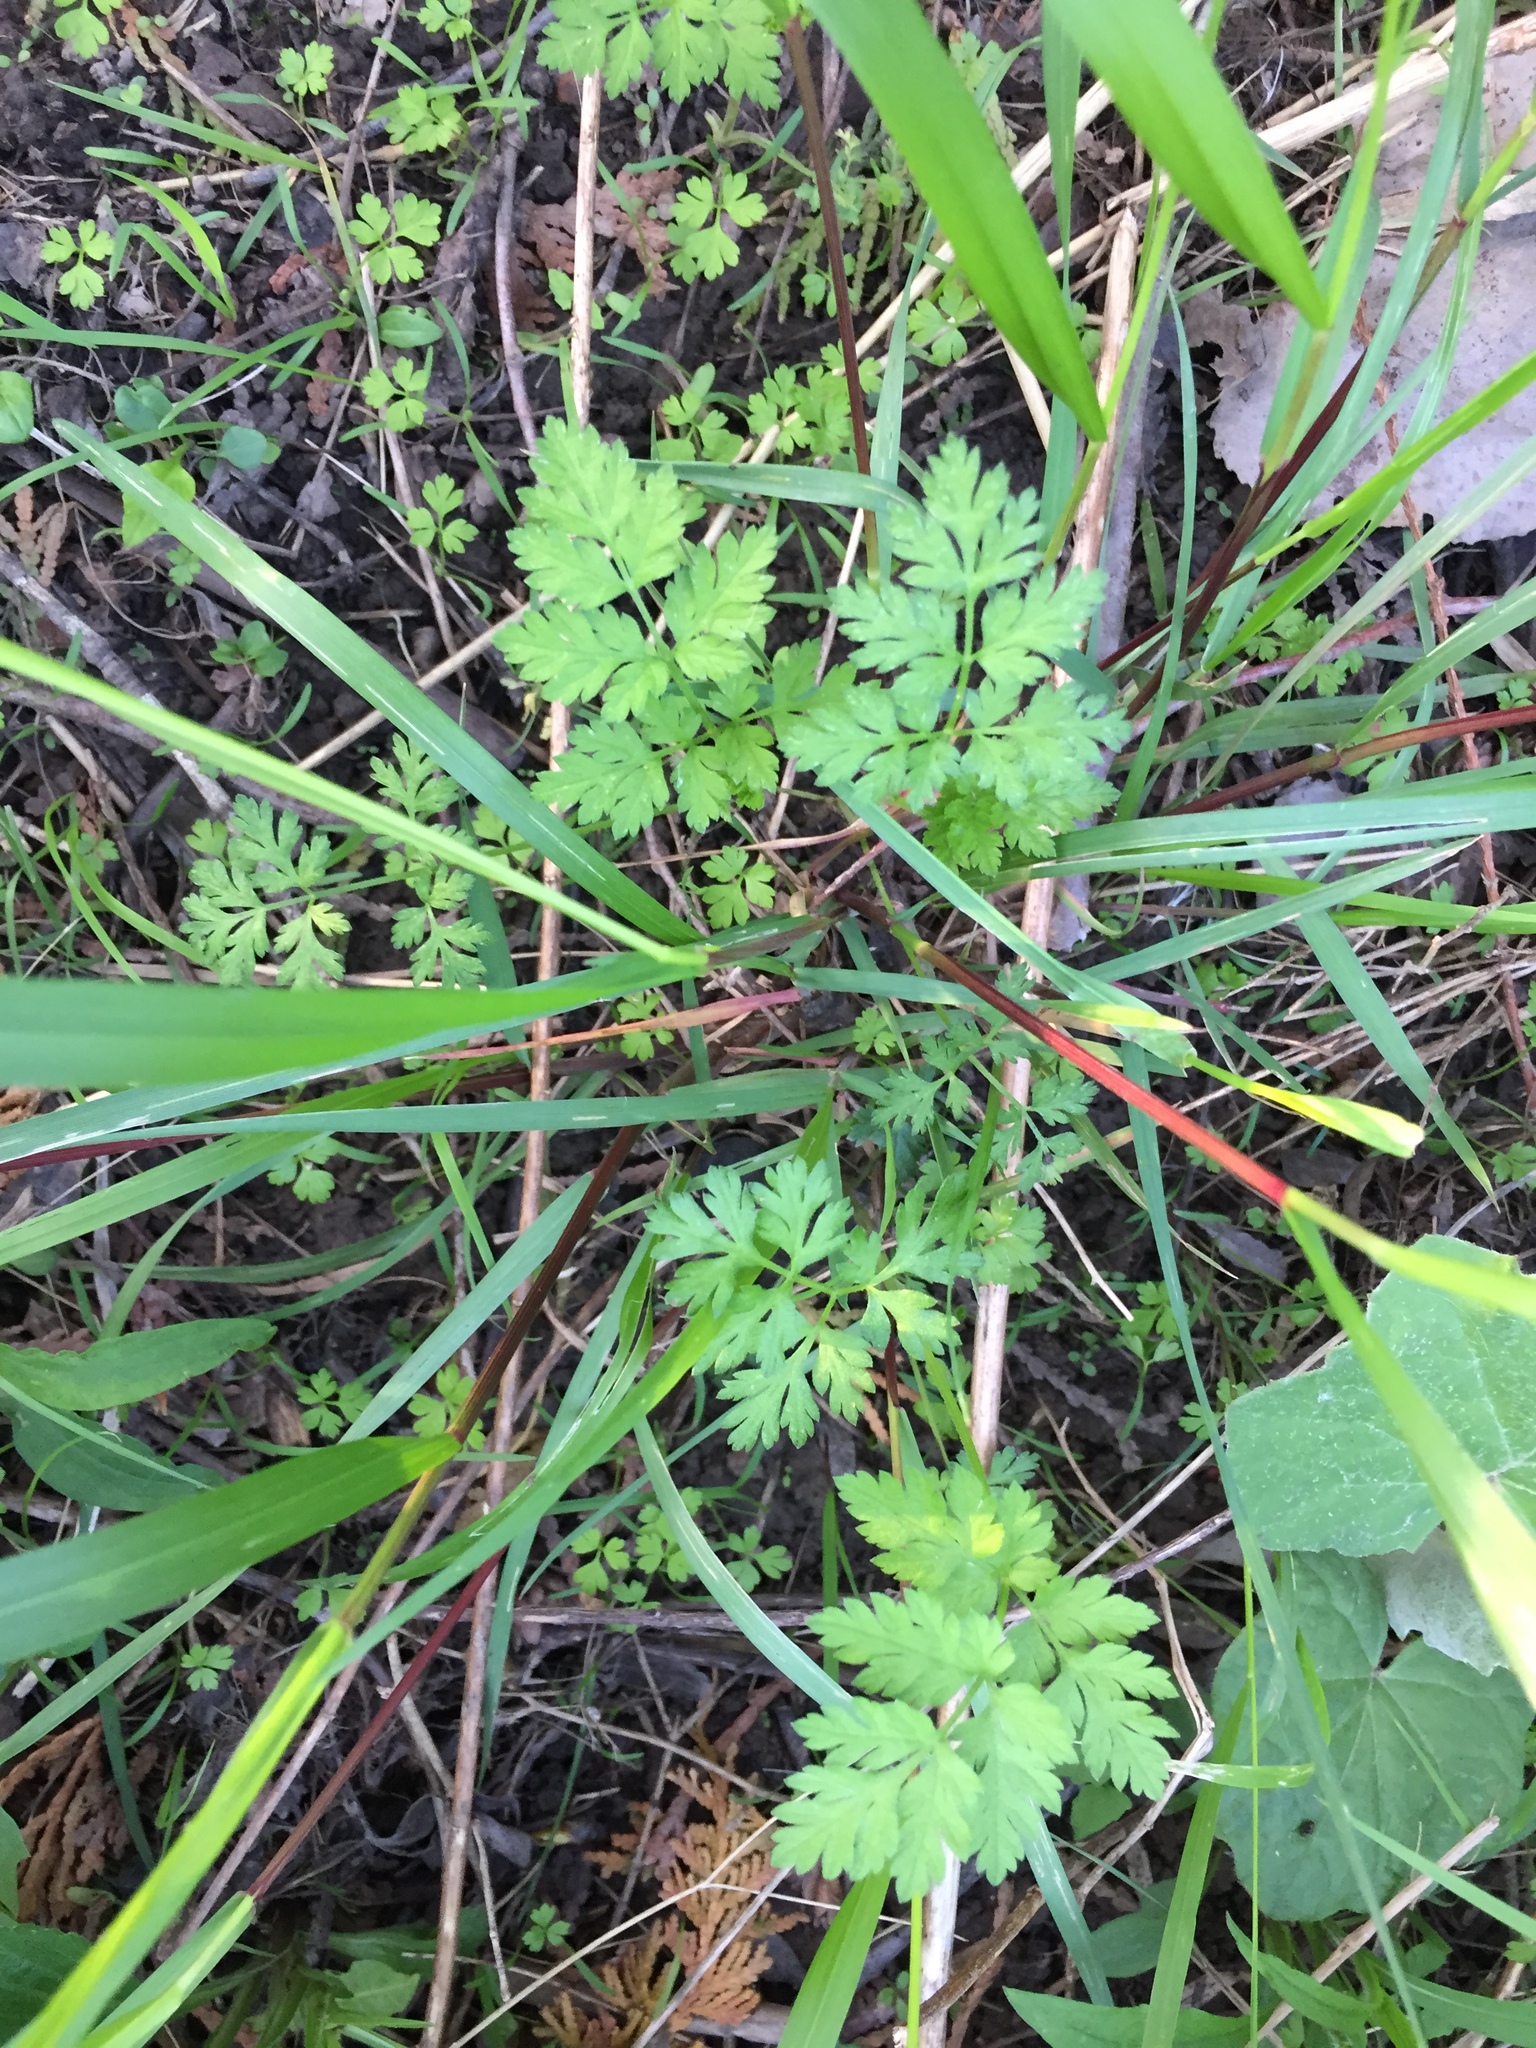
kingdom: Plantae
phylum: Tracheophyta
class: Magnoliopsida
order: Geraniales
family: Geraniaceae
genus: Geranium
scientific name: Geranium robertianum
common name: Herb-robert
